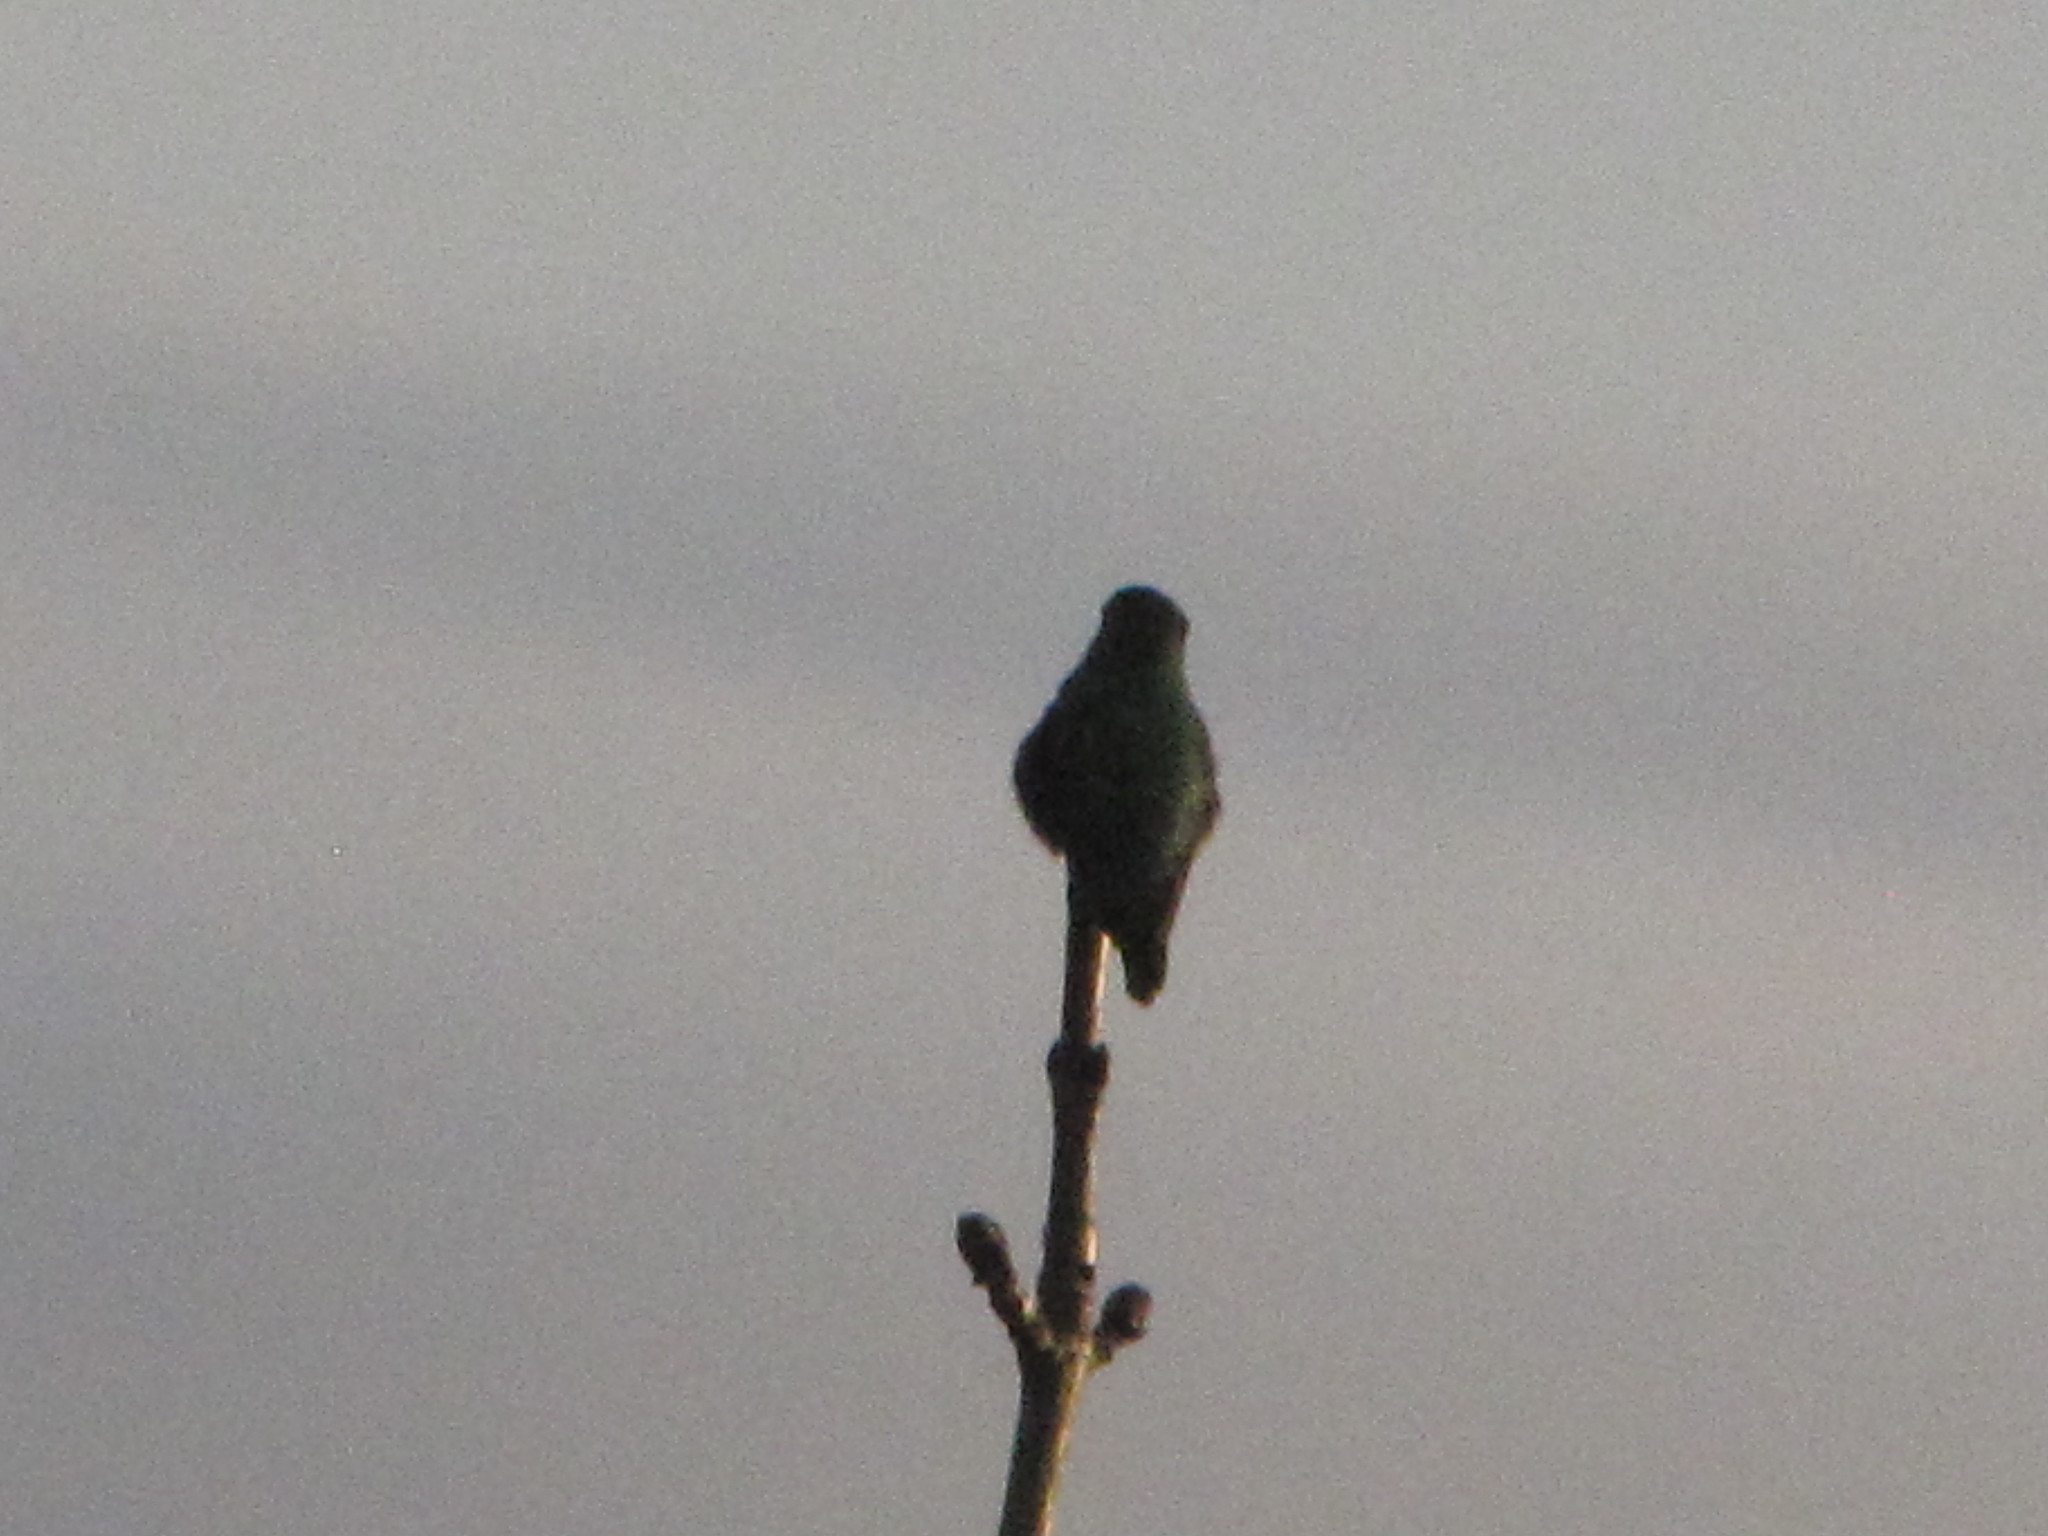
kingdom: Animalia
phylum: Chordata
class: Aves
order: Apodiformes
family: Trochilidae
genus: Calypte
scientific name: Calypte anna
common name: Anna's hummingbird
